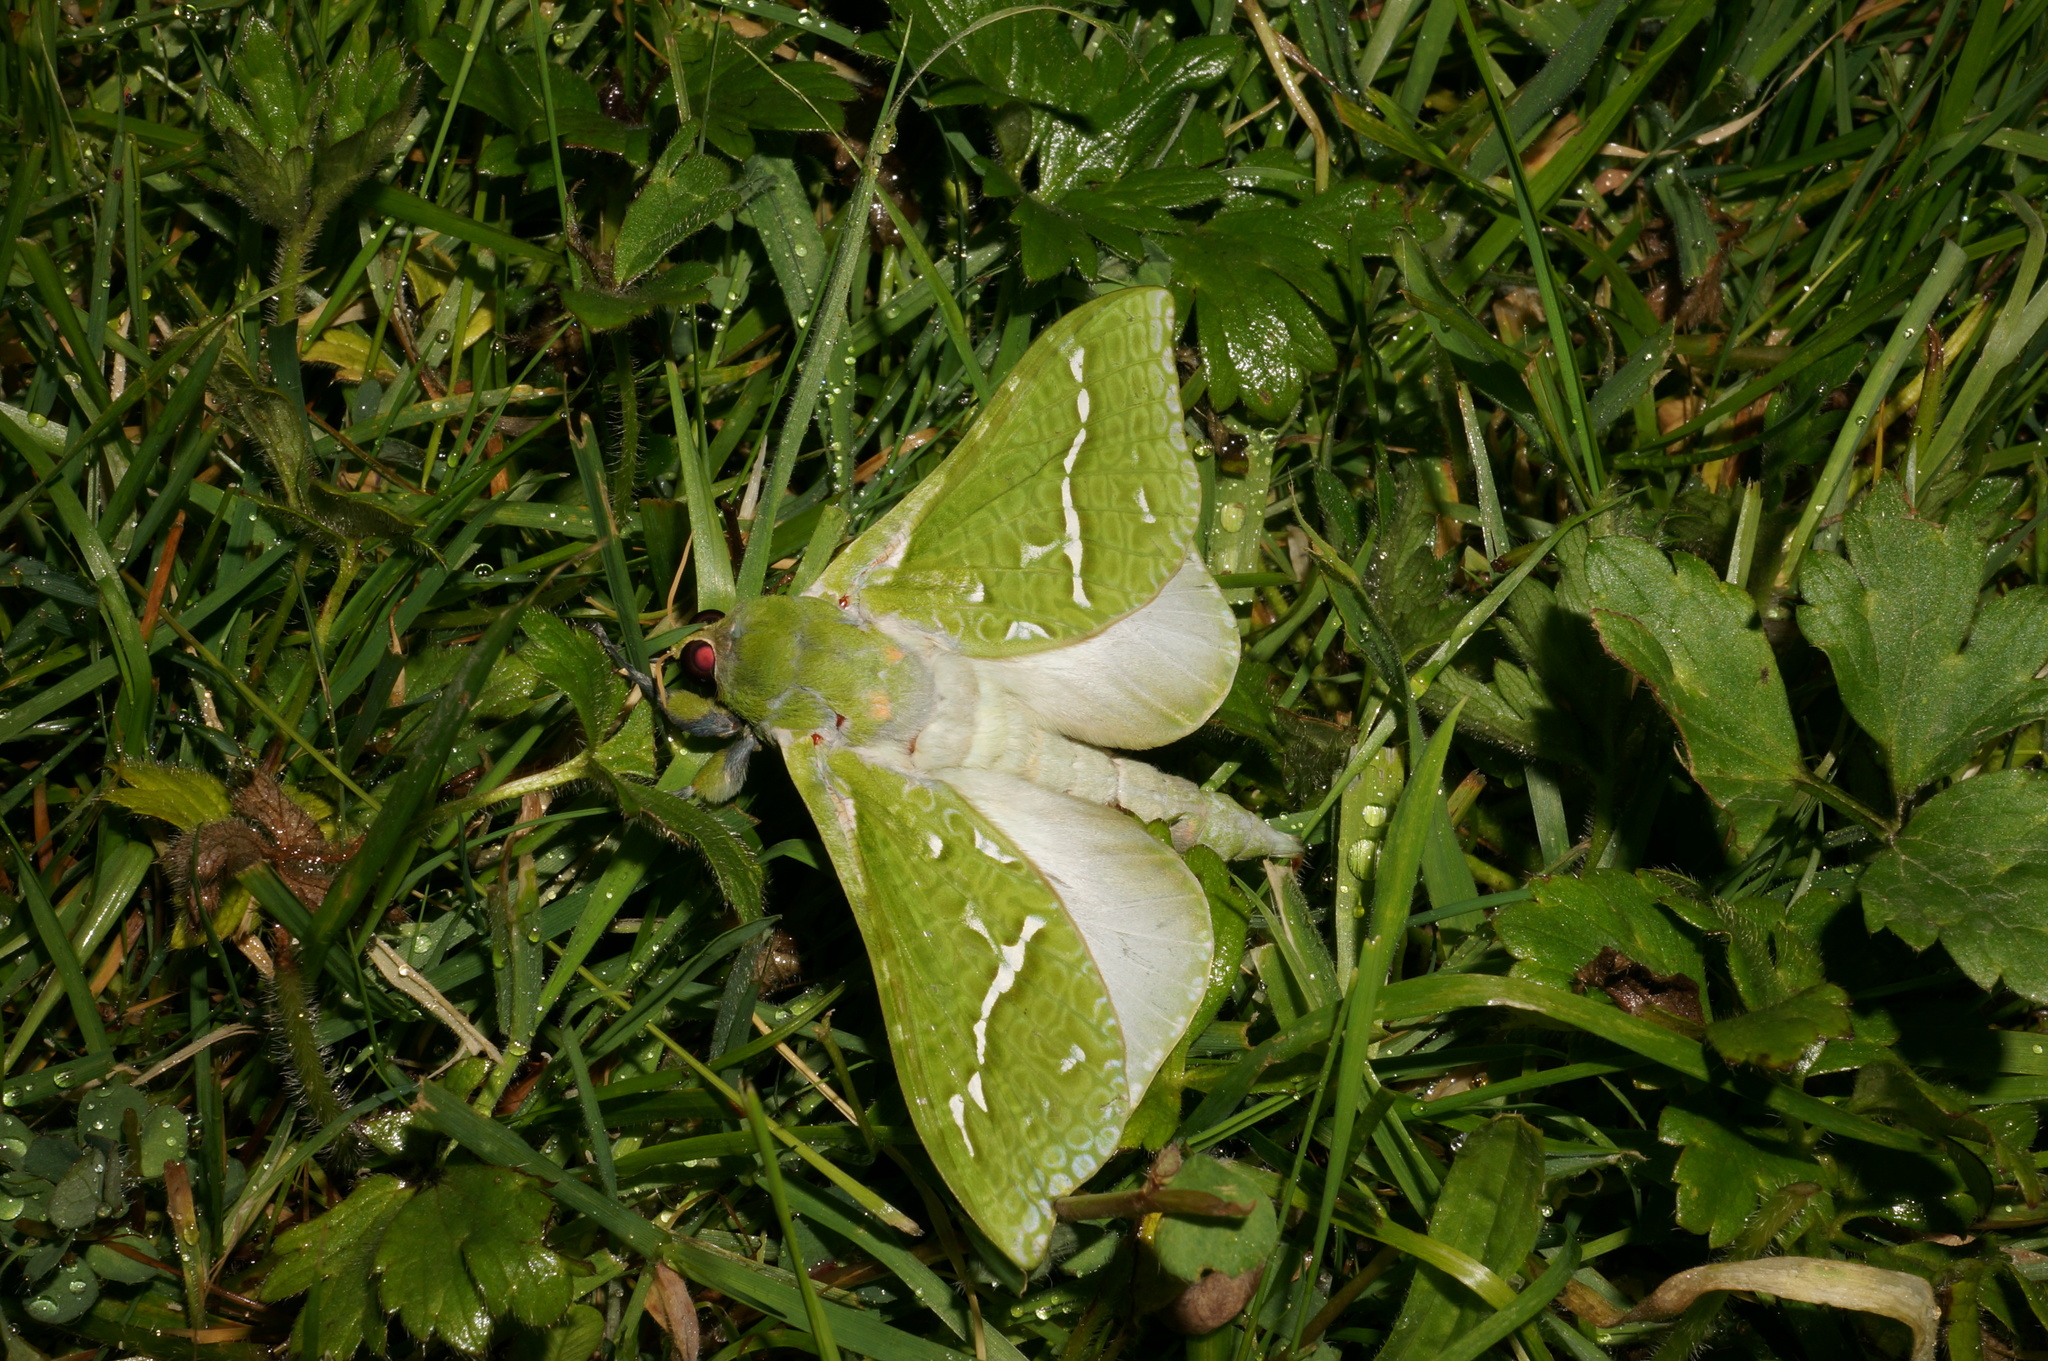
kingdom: Animalia
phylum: Arthropoda
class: Insecta
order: Lepidoptera
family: Hepialidae
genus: Aenetus
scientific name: Aenetus virescens
